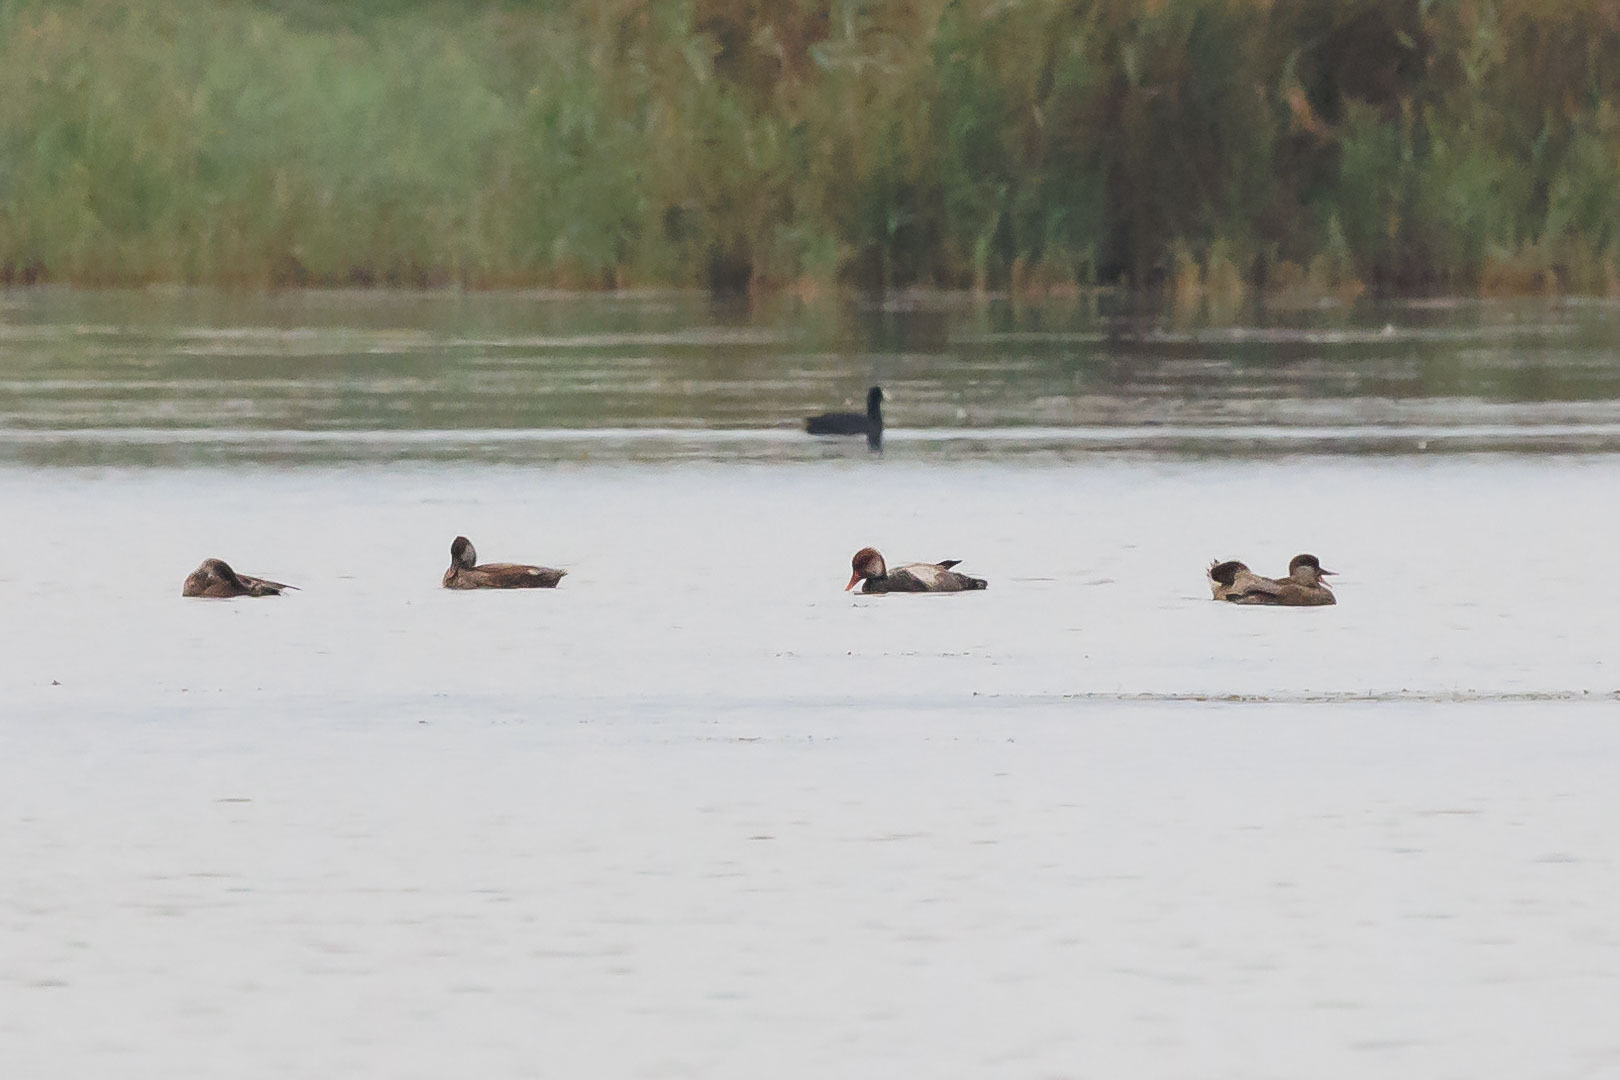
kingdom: Animalia
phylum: Chordata
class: Aves
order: Anseriformes
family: Anatidae
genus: Netta
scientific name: Netta rufina
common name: Red-crested pochard
